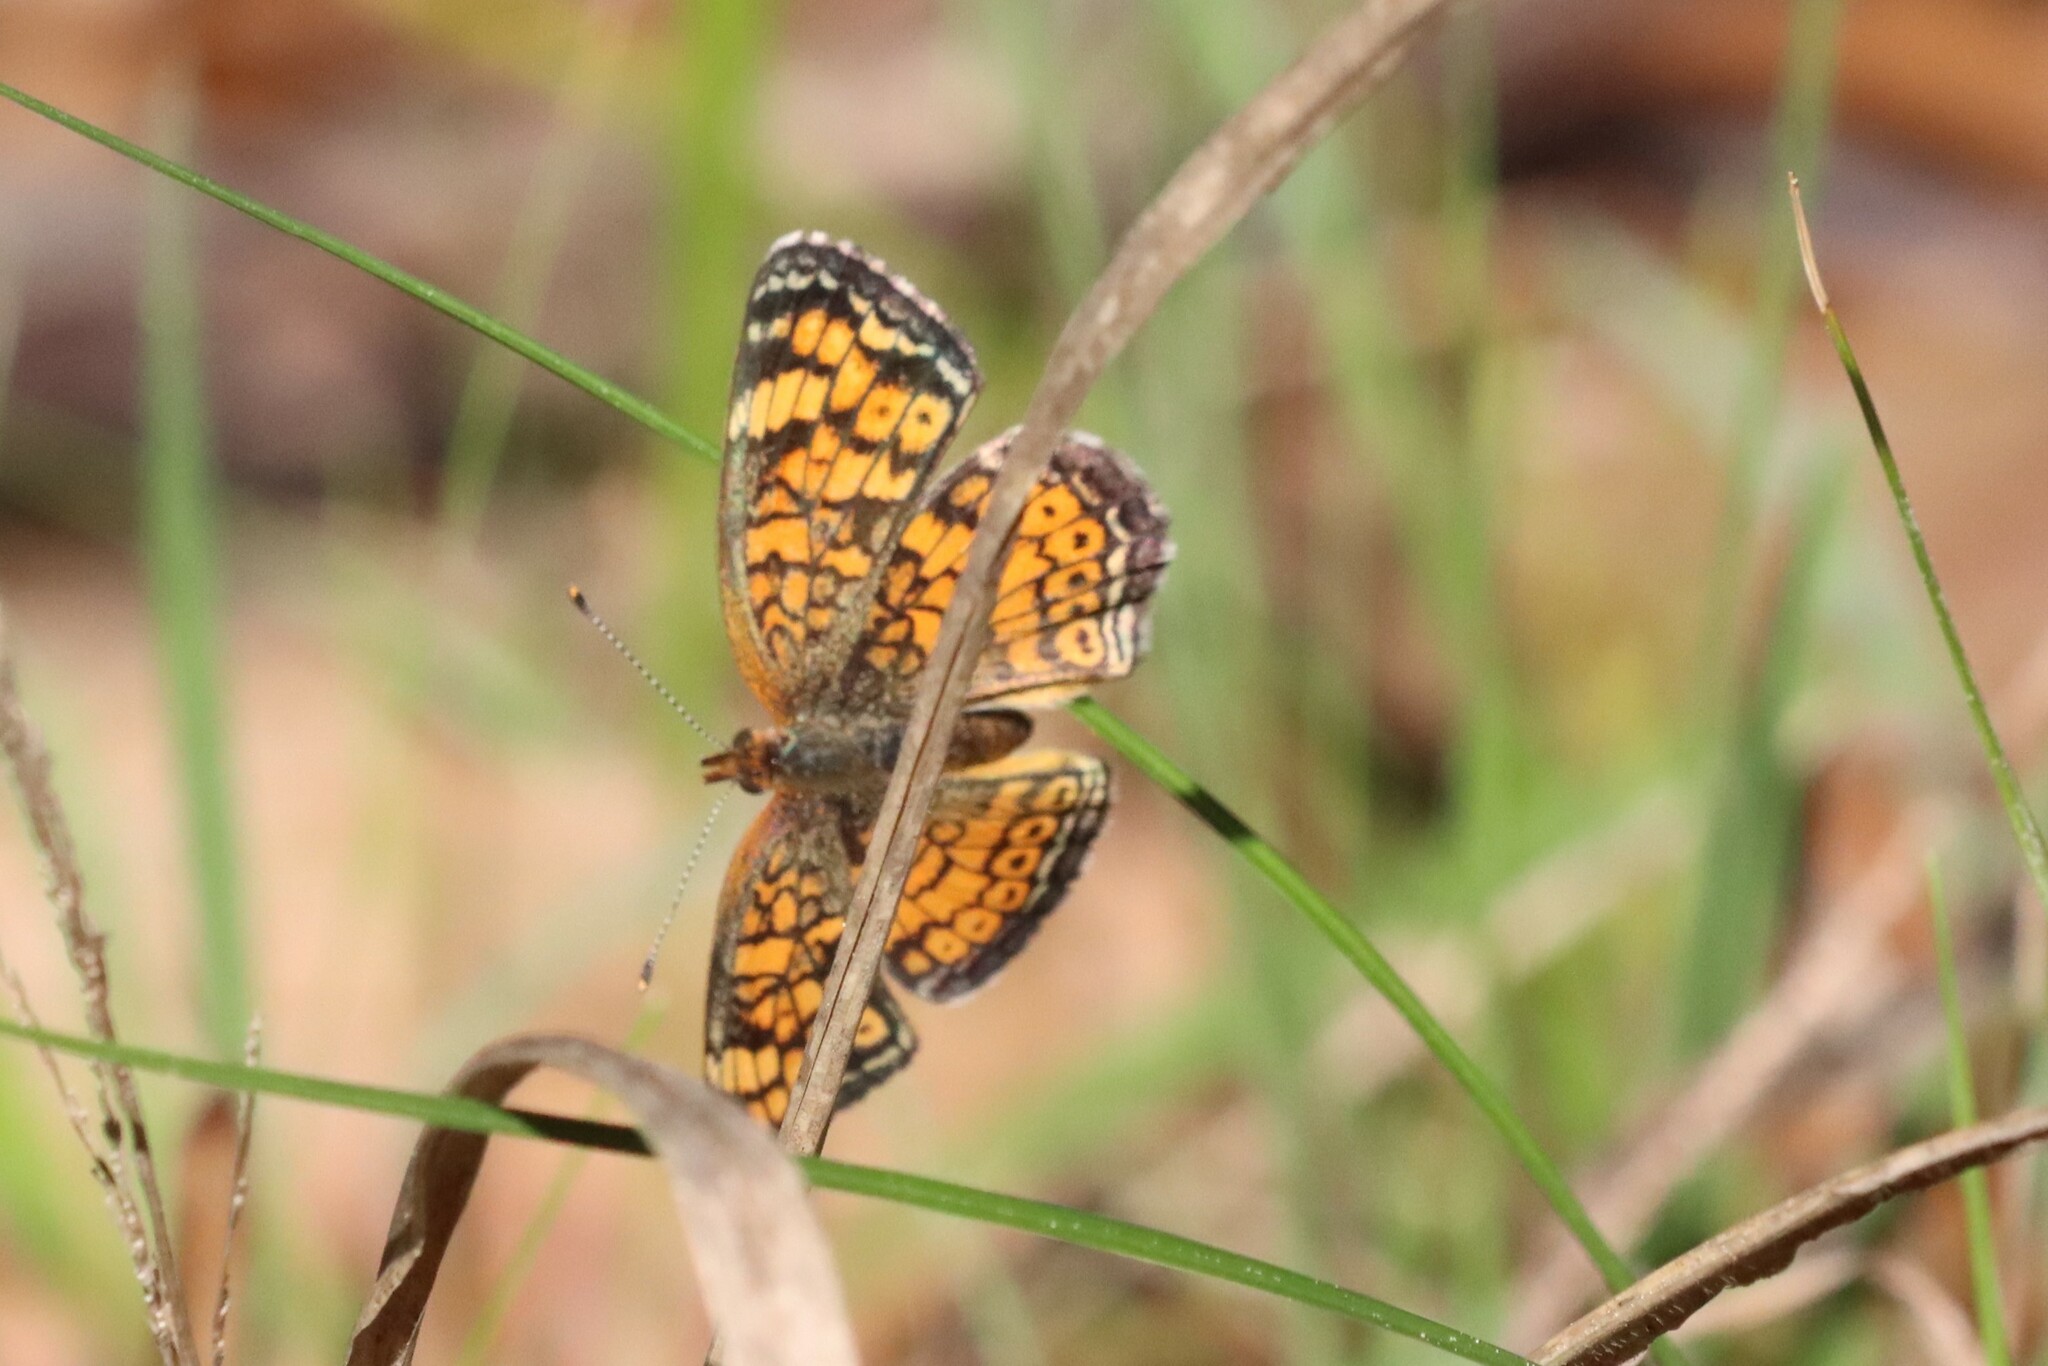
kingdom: Animalia
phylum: Arthropoda
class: Insecta
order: Lepidoptera
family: Nymphalidae
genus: Phyciodes
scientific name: Phyciodes tharos
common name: Pearl crescent
